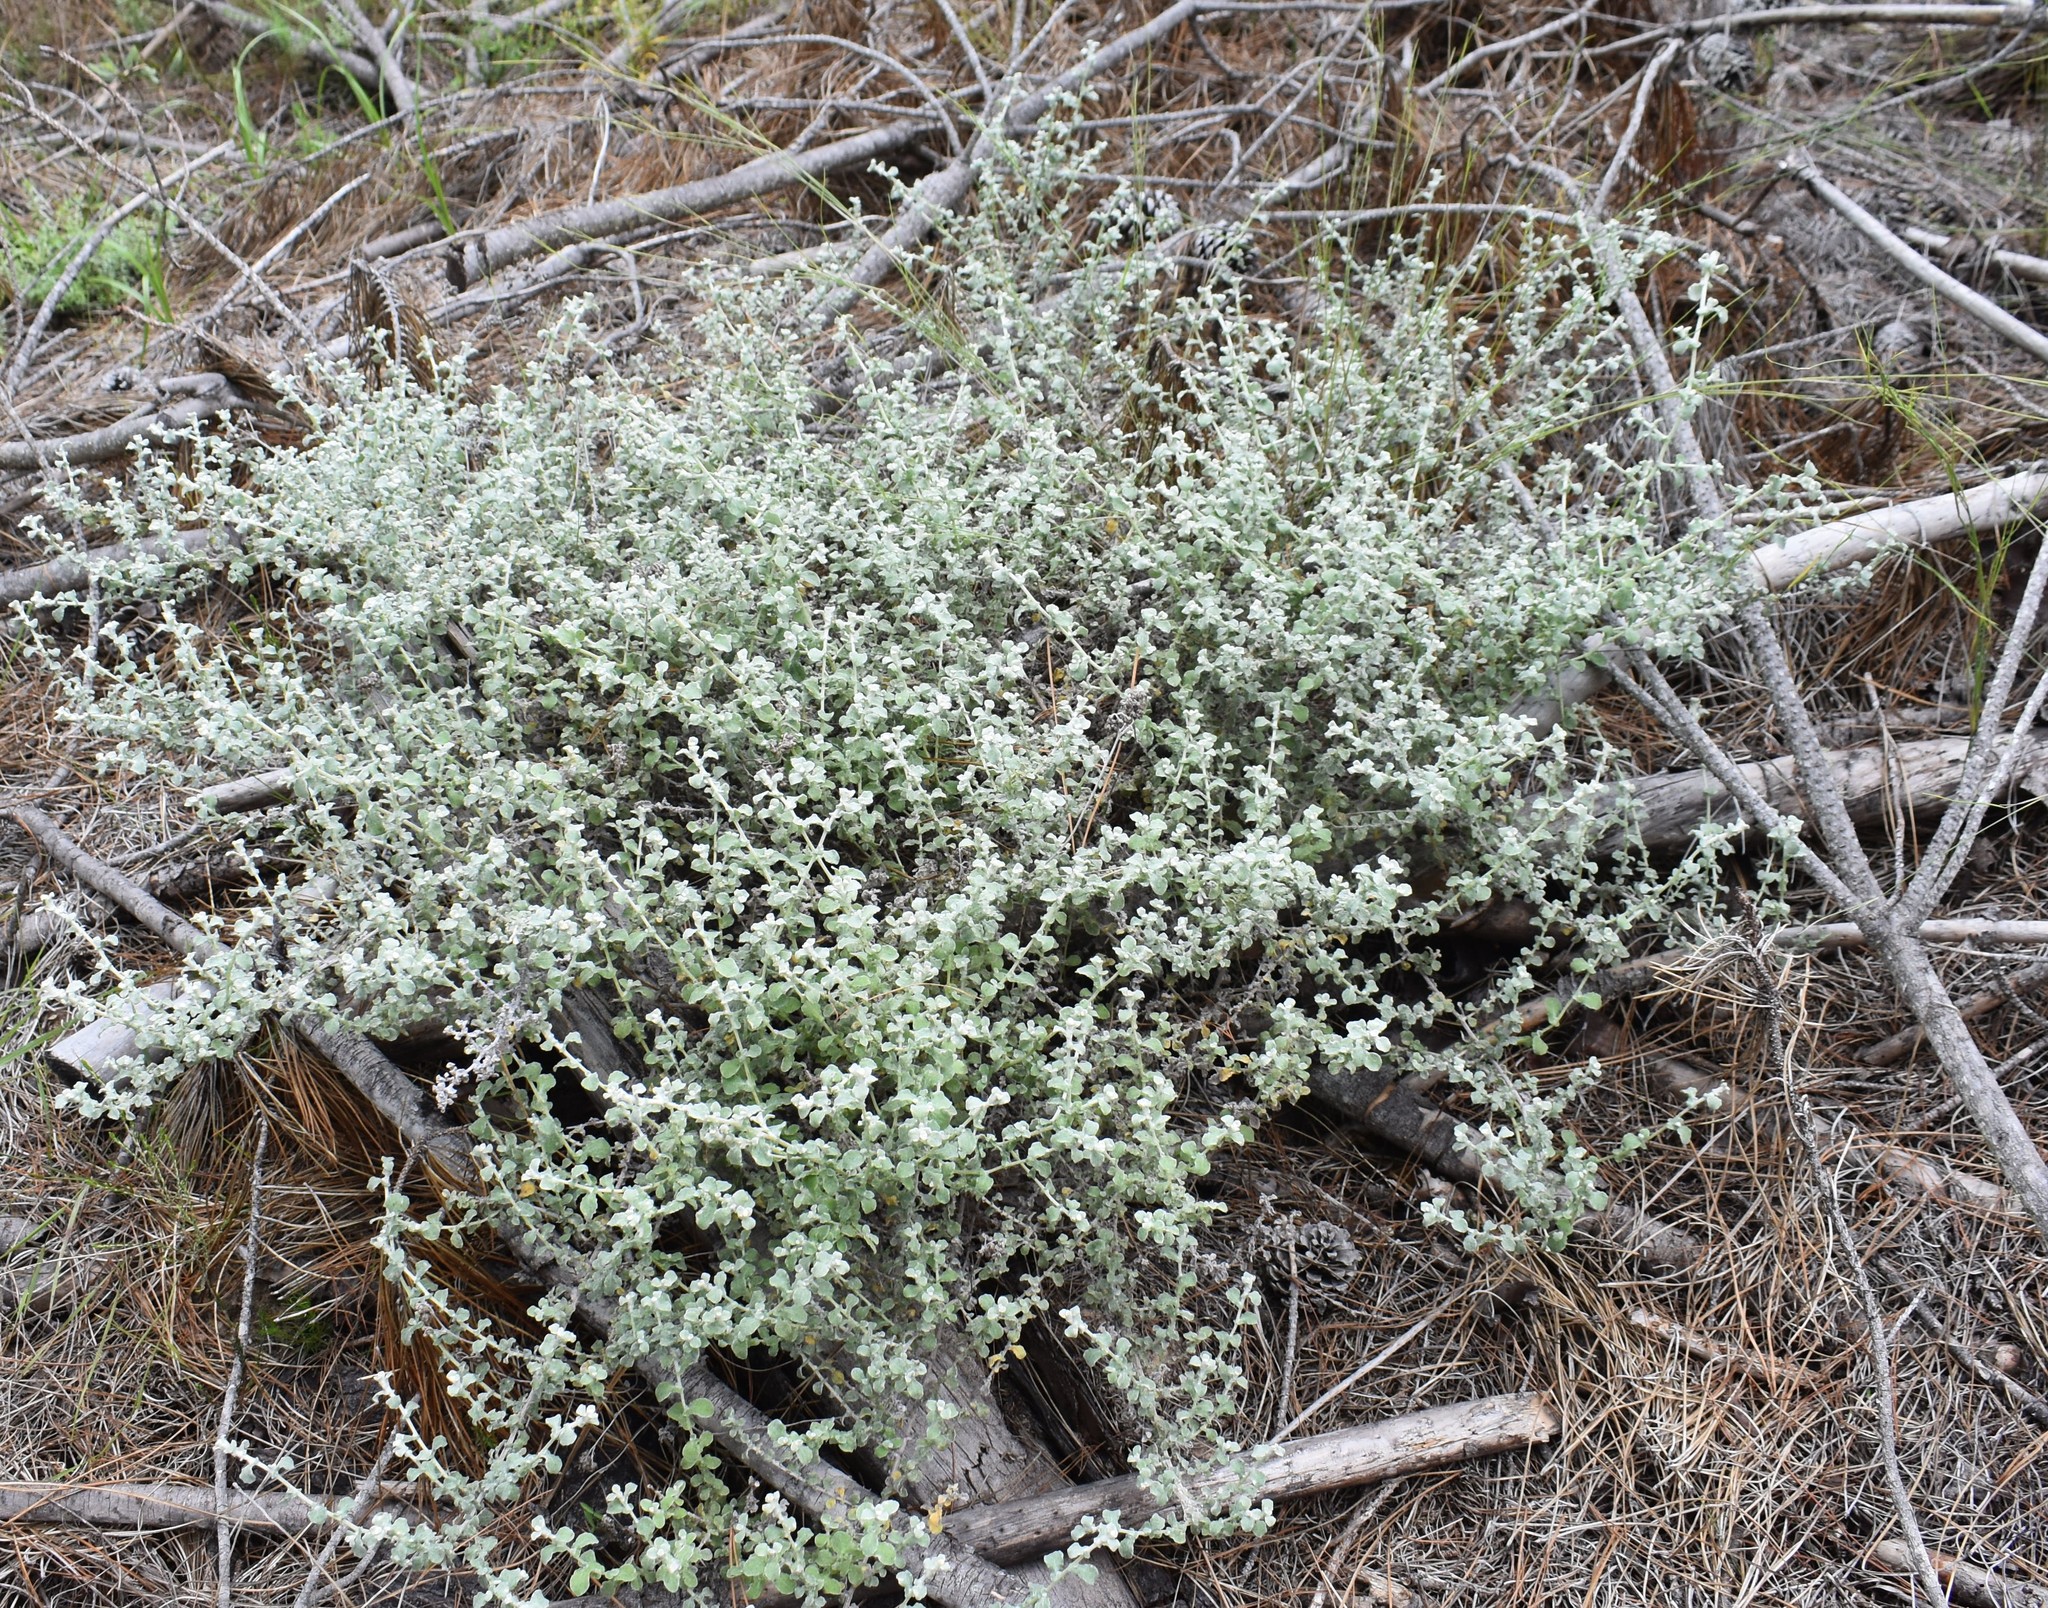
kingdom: Plantae
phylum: Tracheophyta
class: Magnoliopsida
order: Asterales
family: Asteraceae
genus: Helichrysum
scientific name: Helichrysum petiolare
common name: Licorice-plant
